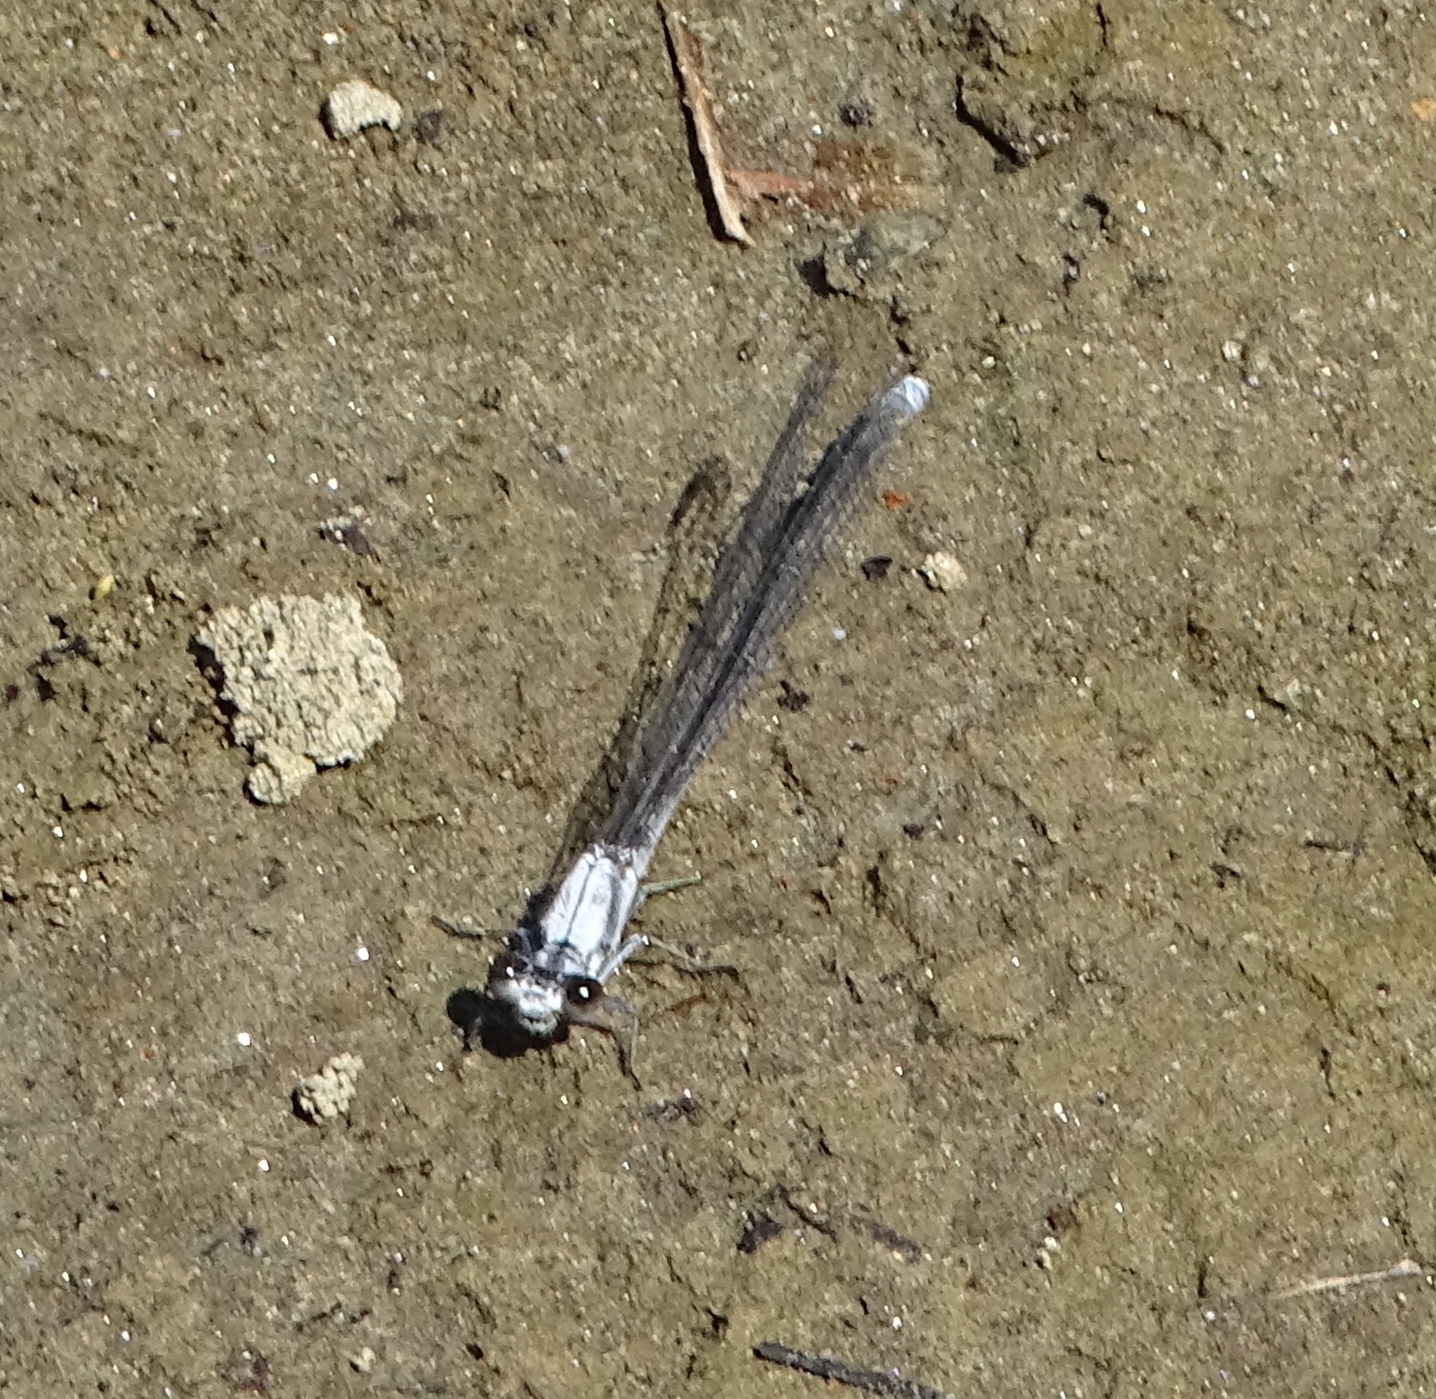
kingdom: Animalia
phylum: Arthropoda
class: Insecta
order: Odonata
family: Coenagrionidae
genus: Argia
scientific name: Argia moesta
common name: Powdered dancer
